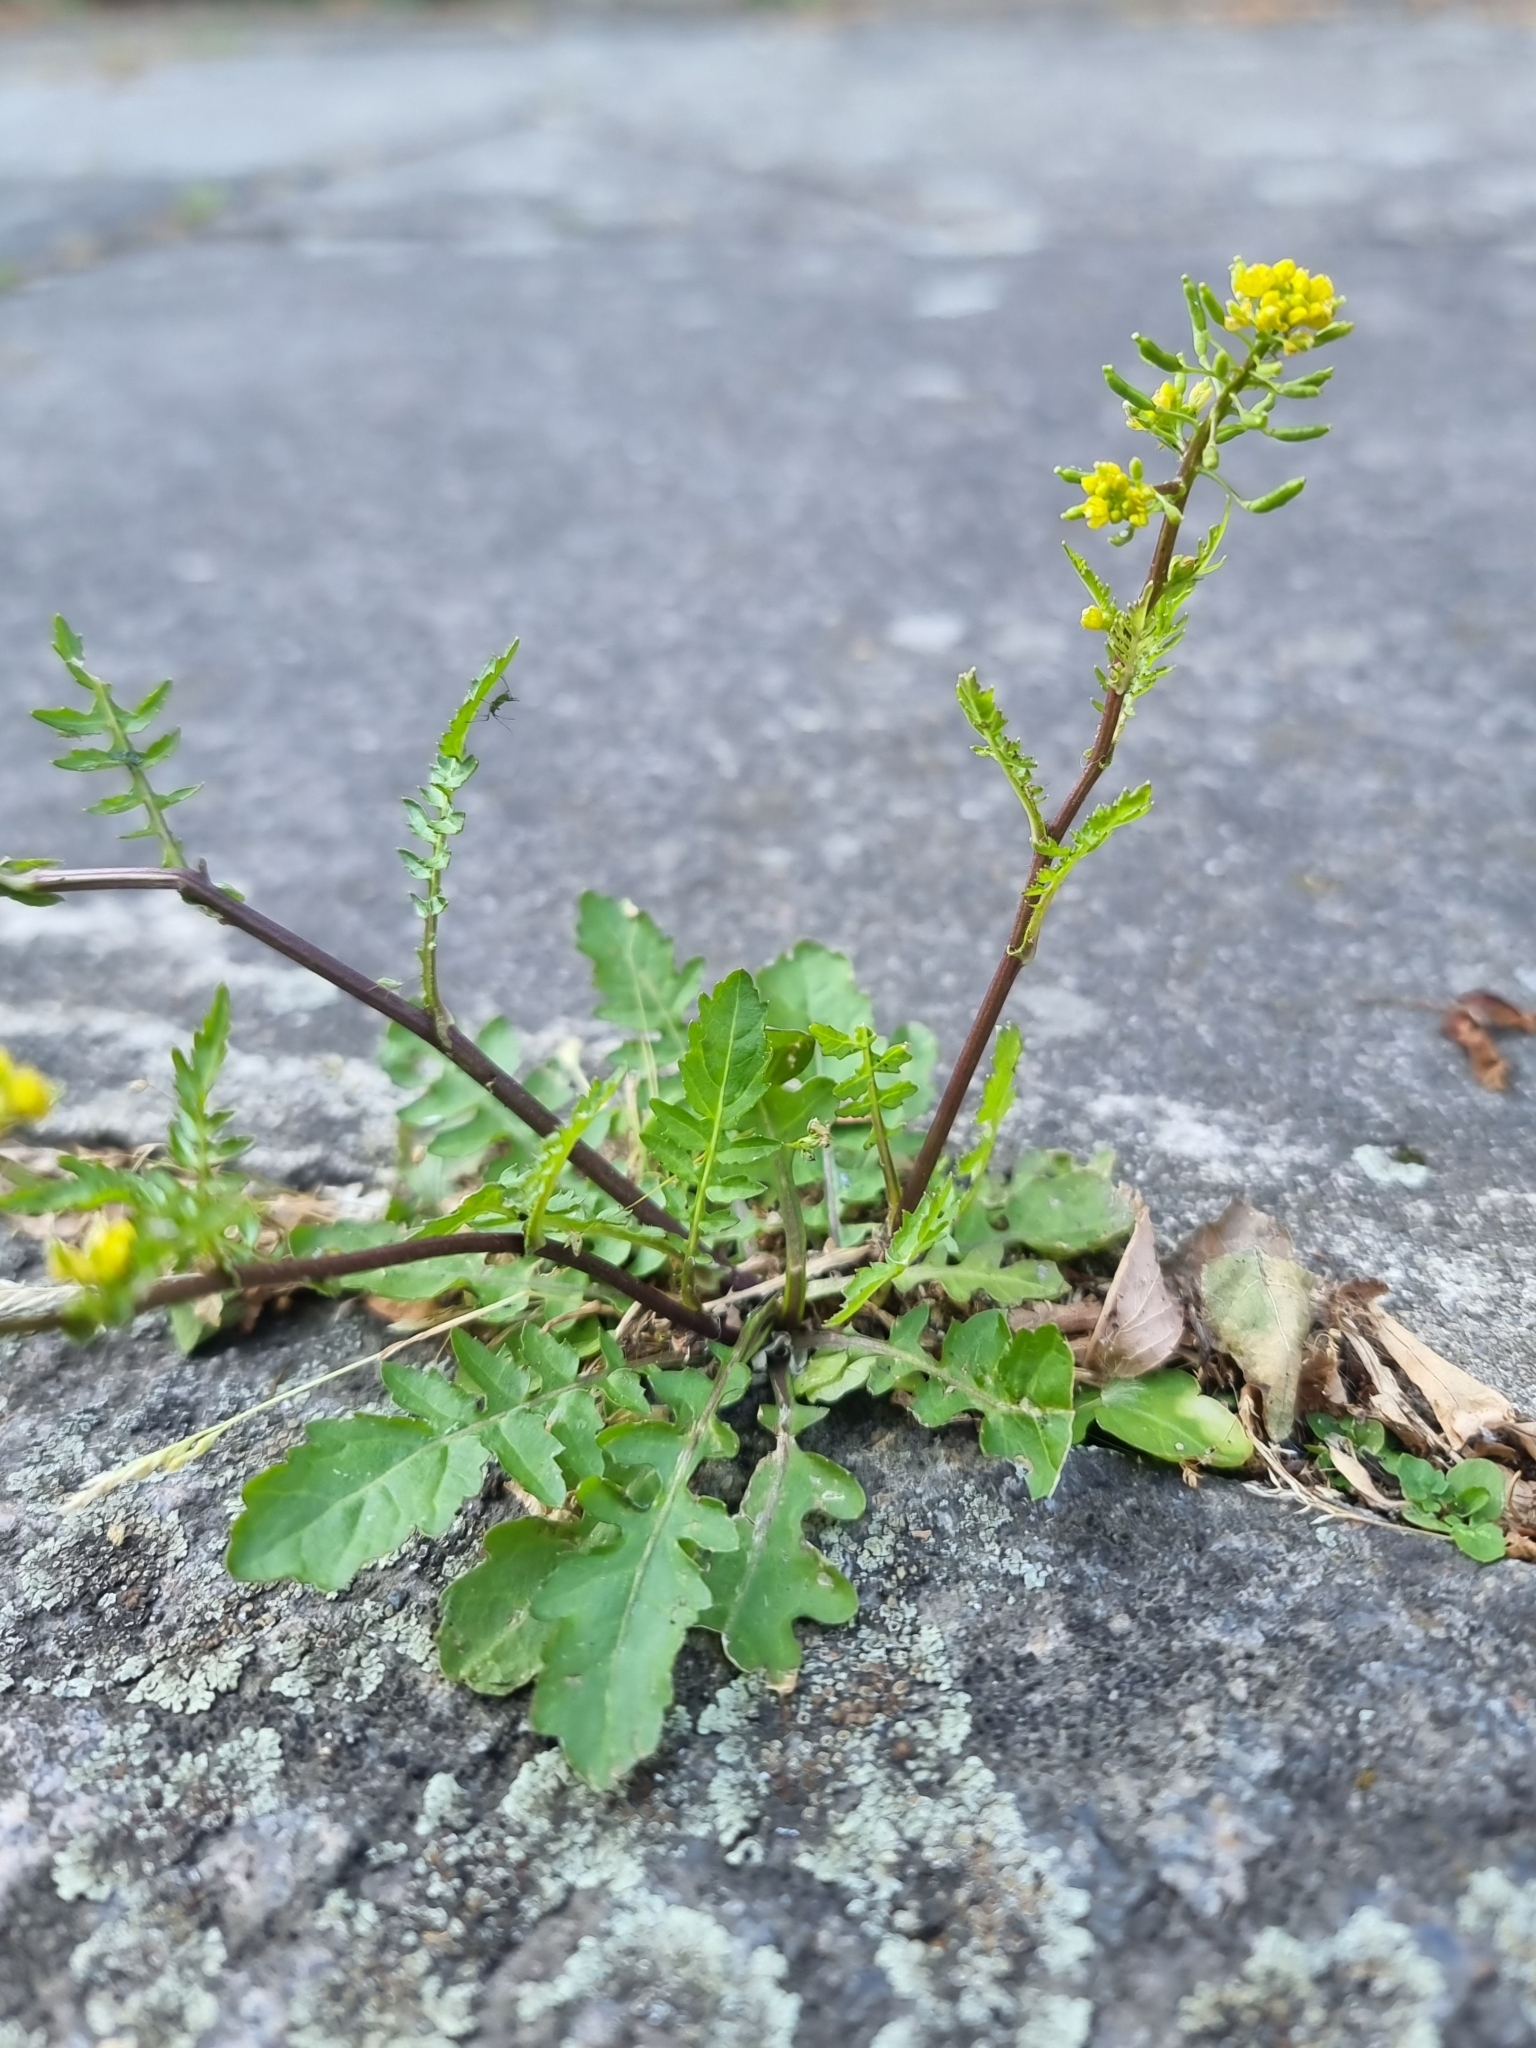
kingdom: Plantae
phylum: Tracheophyta
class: Magnoliopsida
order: Brassicales
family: Brassicaceae
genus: Rorippa
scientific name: Rorippa palustris
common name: Marsh yellow-cress
